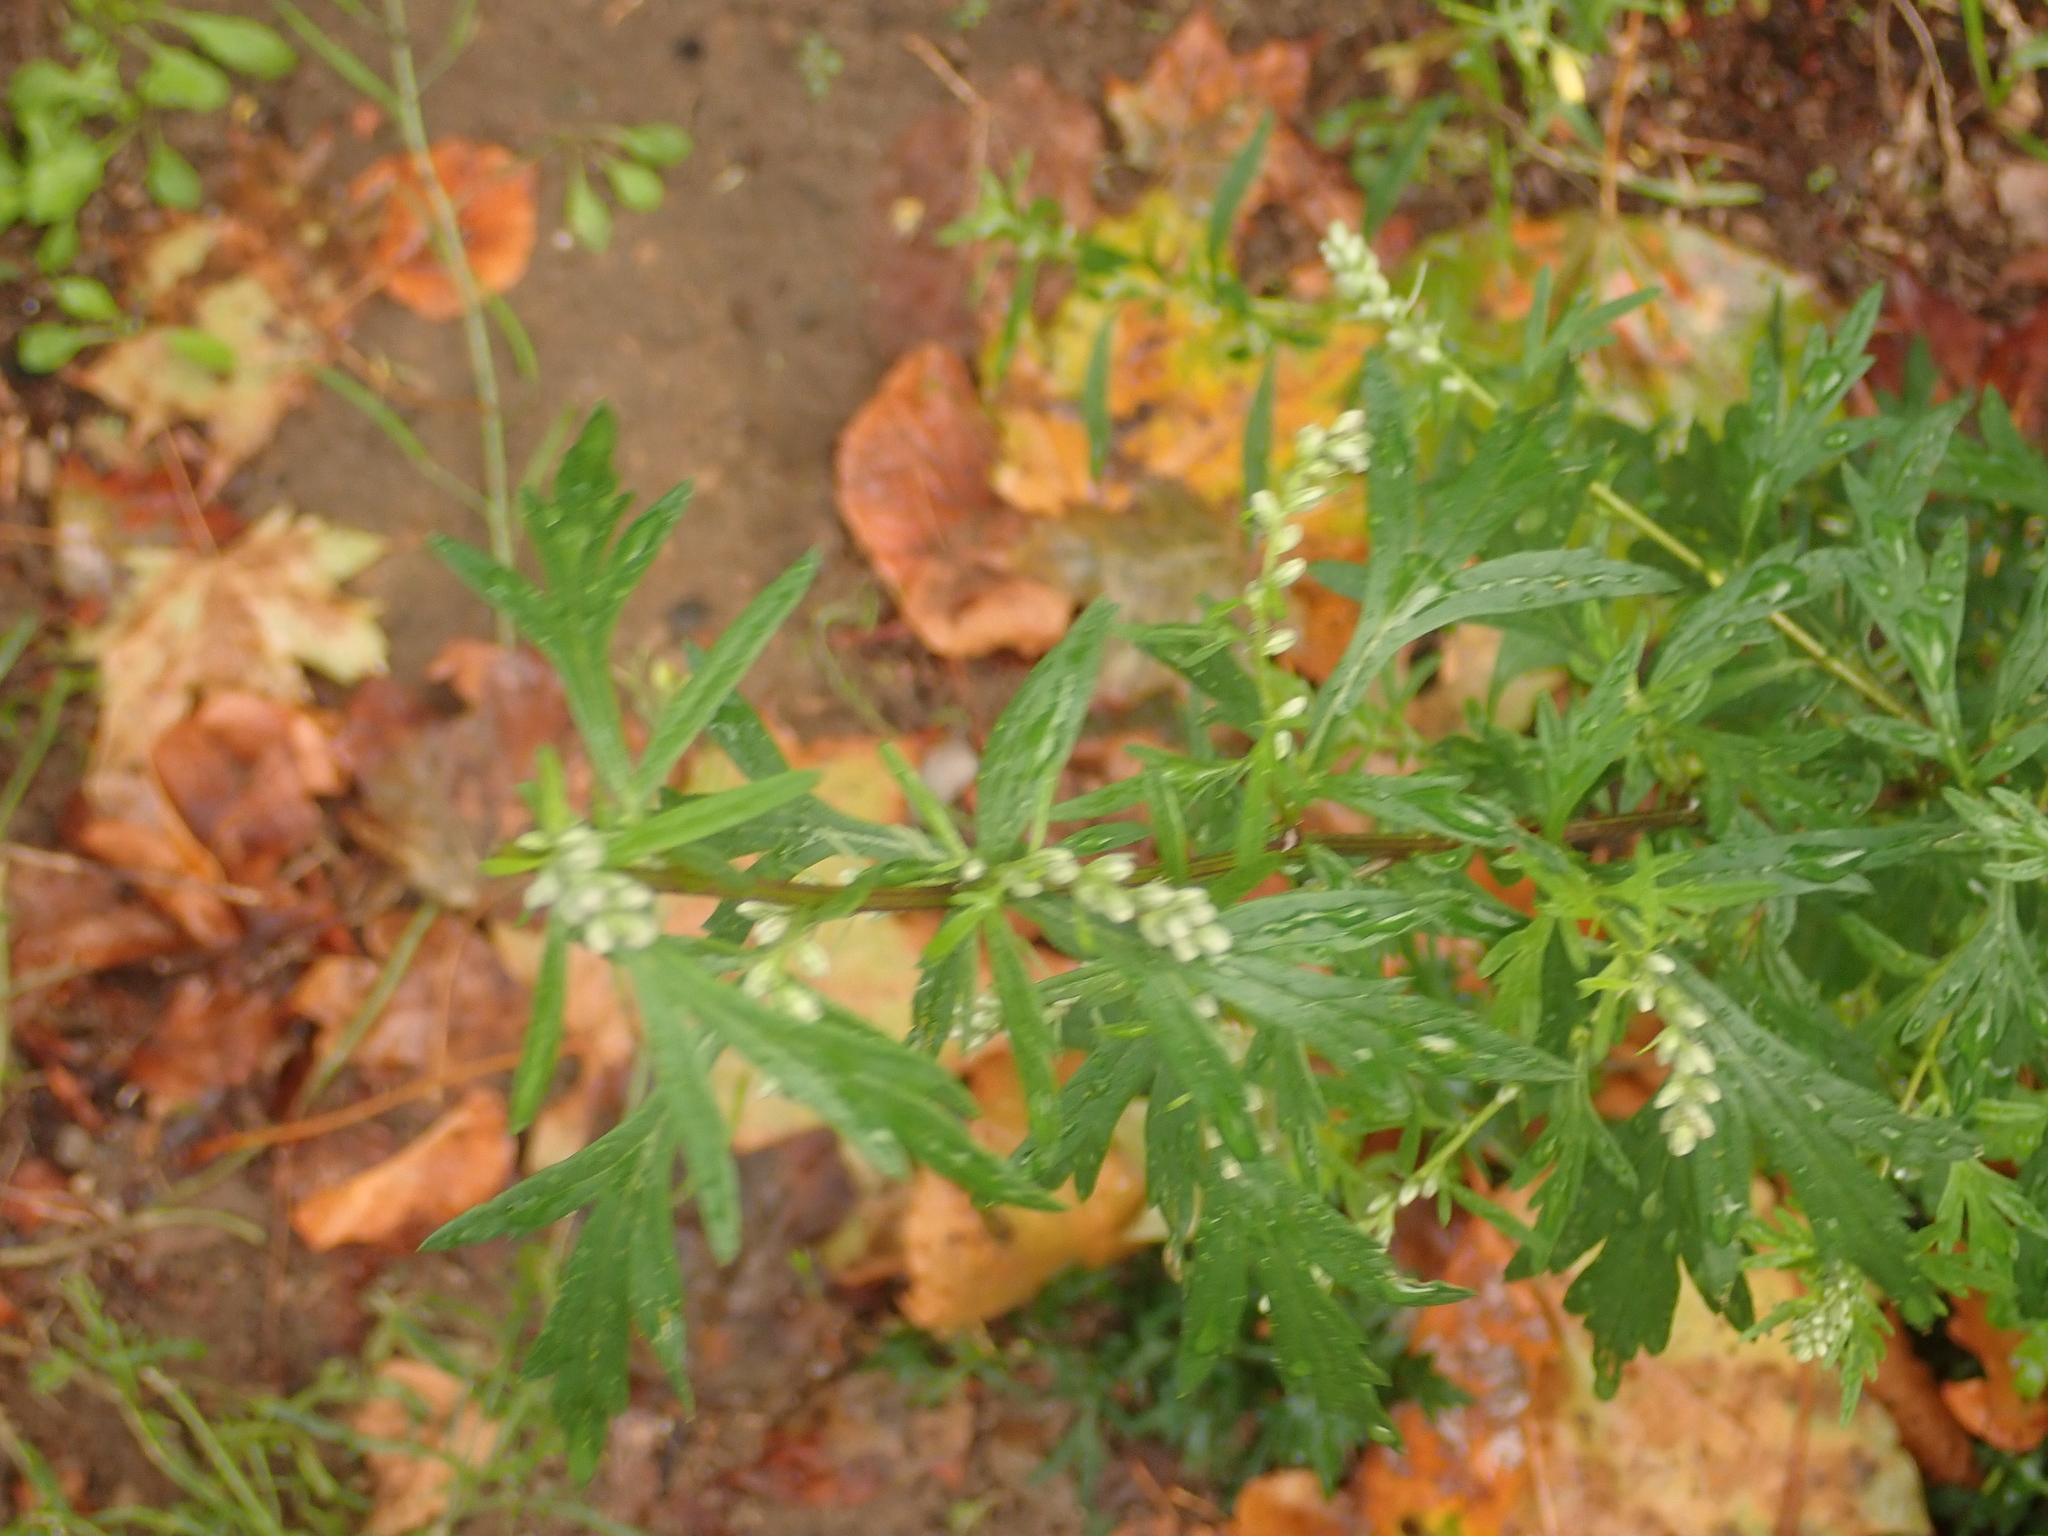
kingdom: Plantae
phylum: Tracheophyta
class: Magnoliopsida
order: Asterales
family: Asteraceae
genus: Artemisia
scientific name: Artemisia vulgaris
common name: Mugwort
